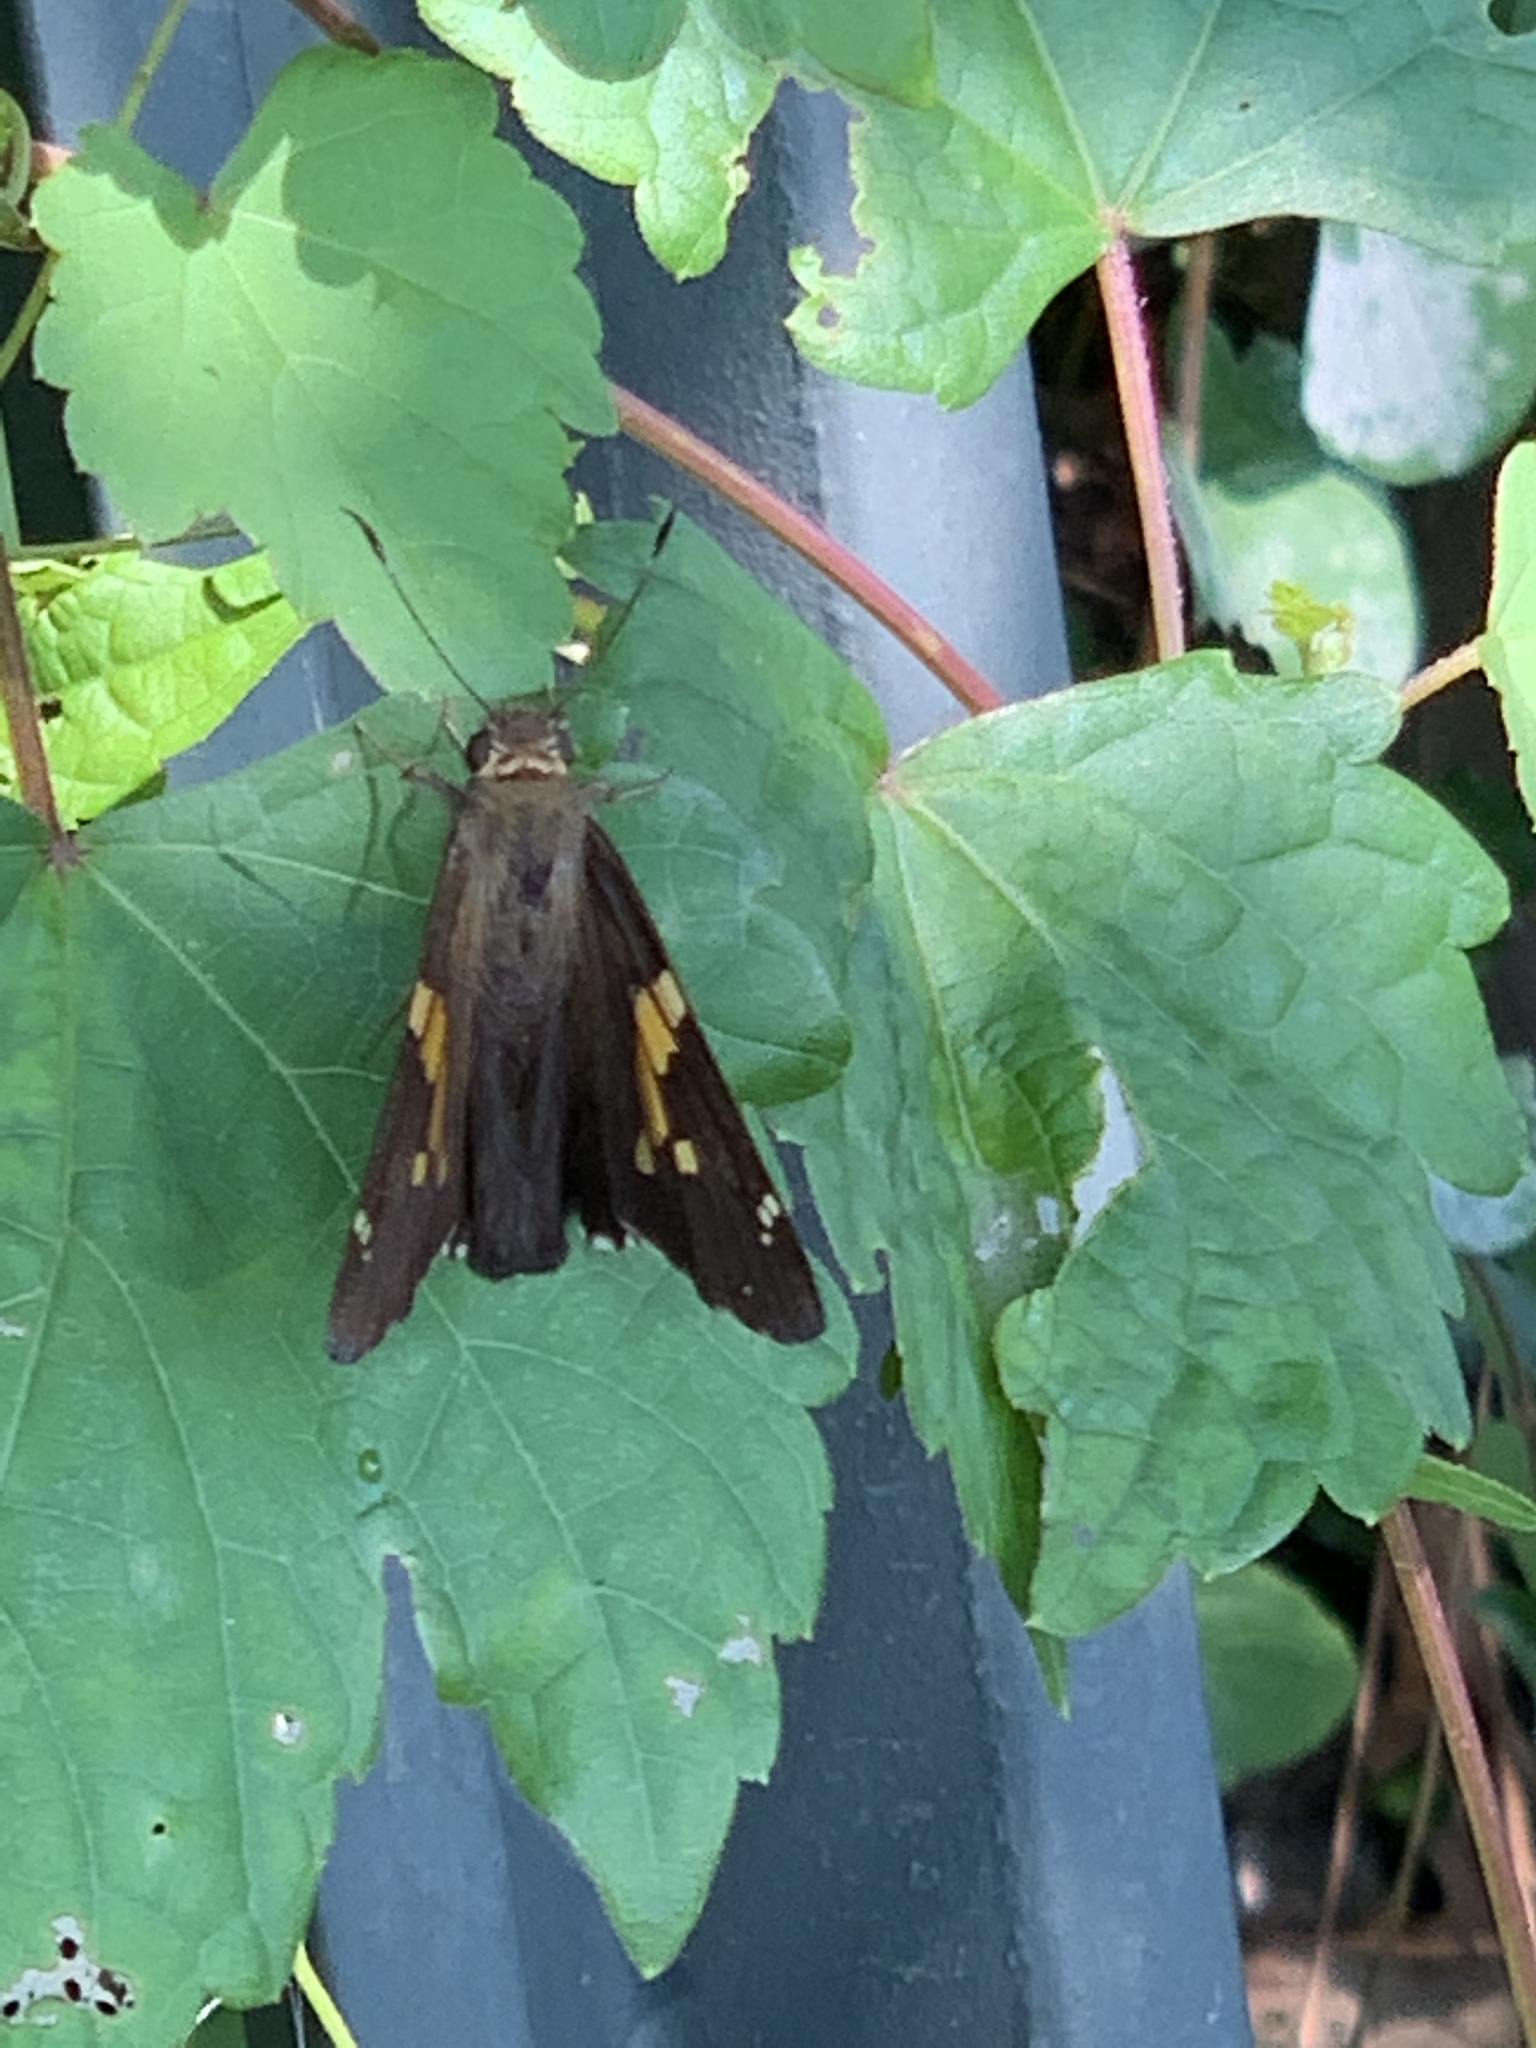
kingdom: Animalia
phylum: Arthropoda
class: Insecta
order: Lepidoptera
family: Hesperiidae
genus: Epargyreus
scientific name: Epargyreus clarus
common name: Silver-spotted skipper
